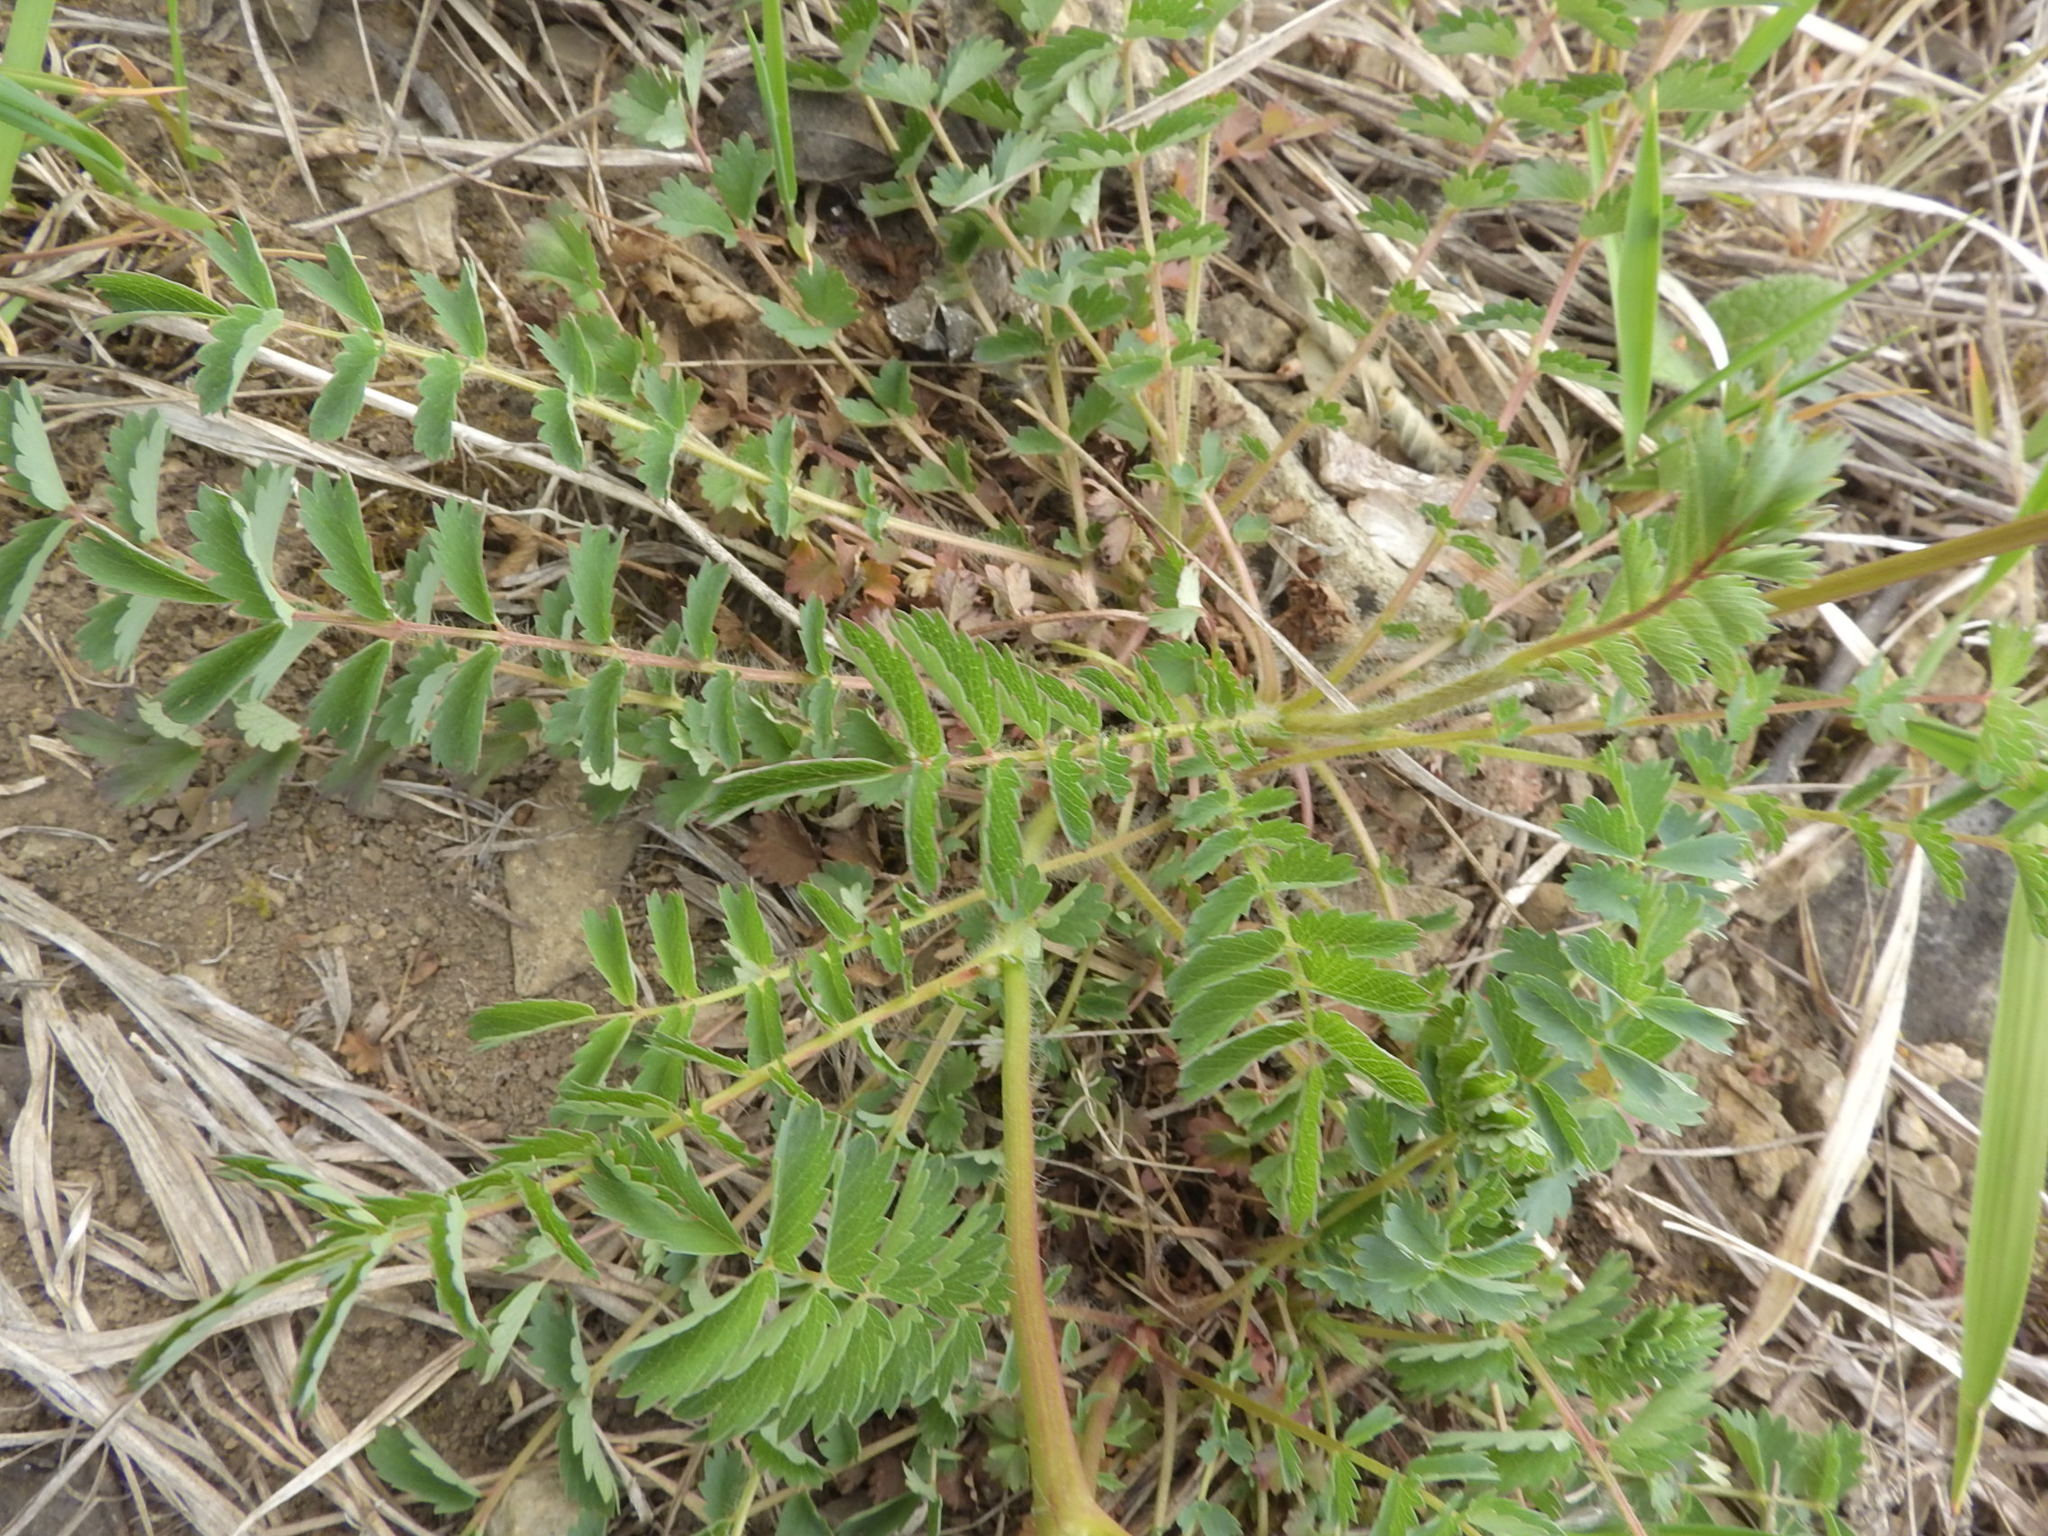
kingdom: Plantae
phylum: Tracheophyta
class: Magnoliopsida
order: Rosales
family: Rosaceae
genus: Poterium
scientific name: Poterium sanguisorba
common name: Salad burnet
